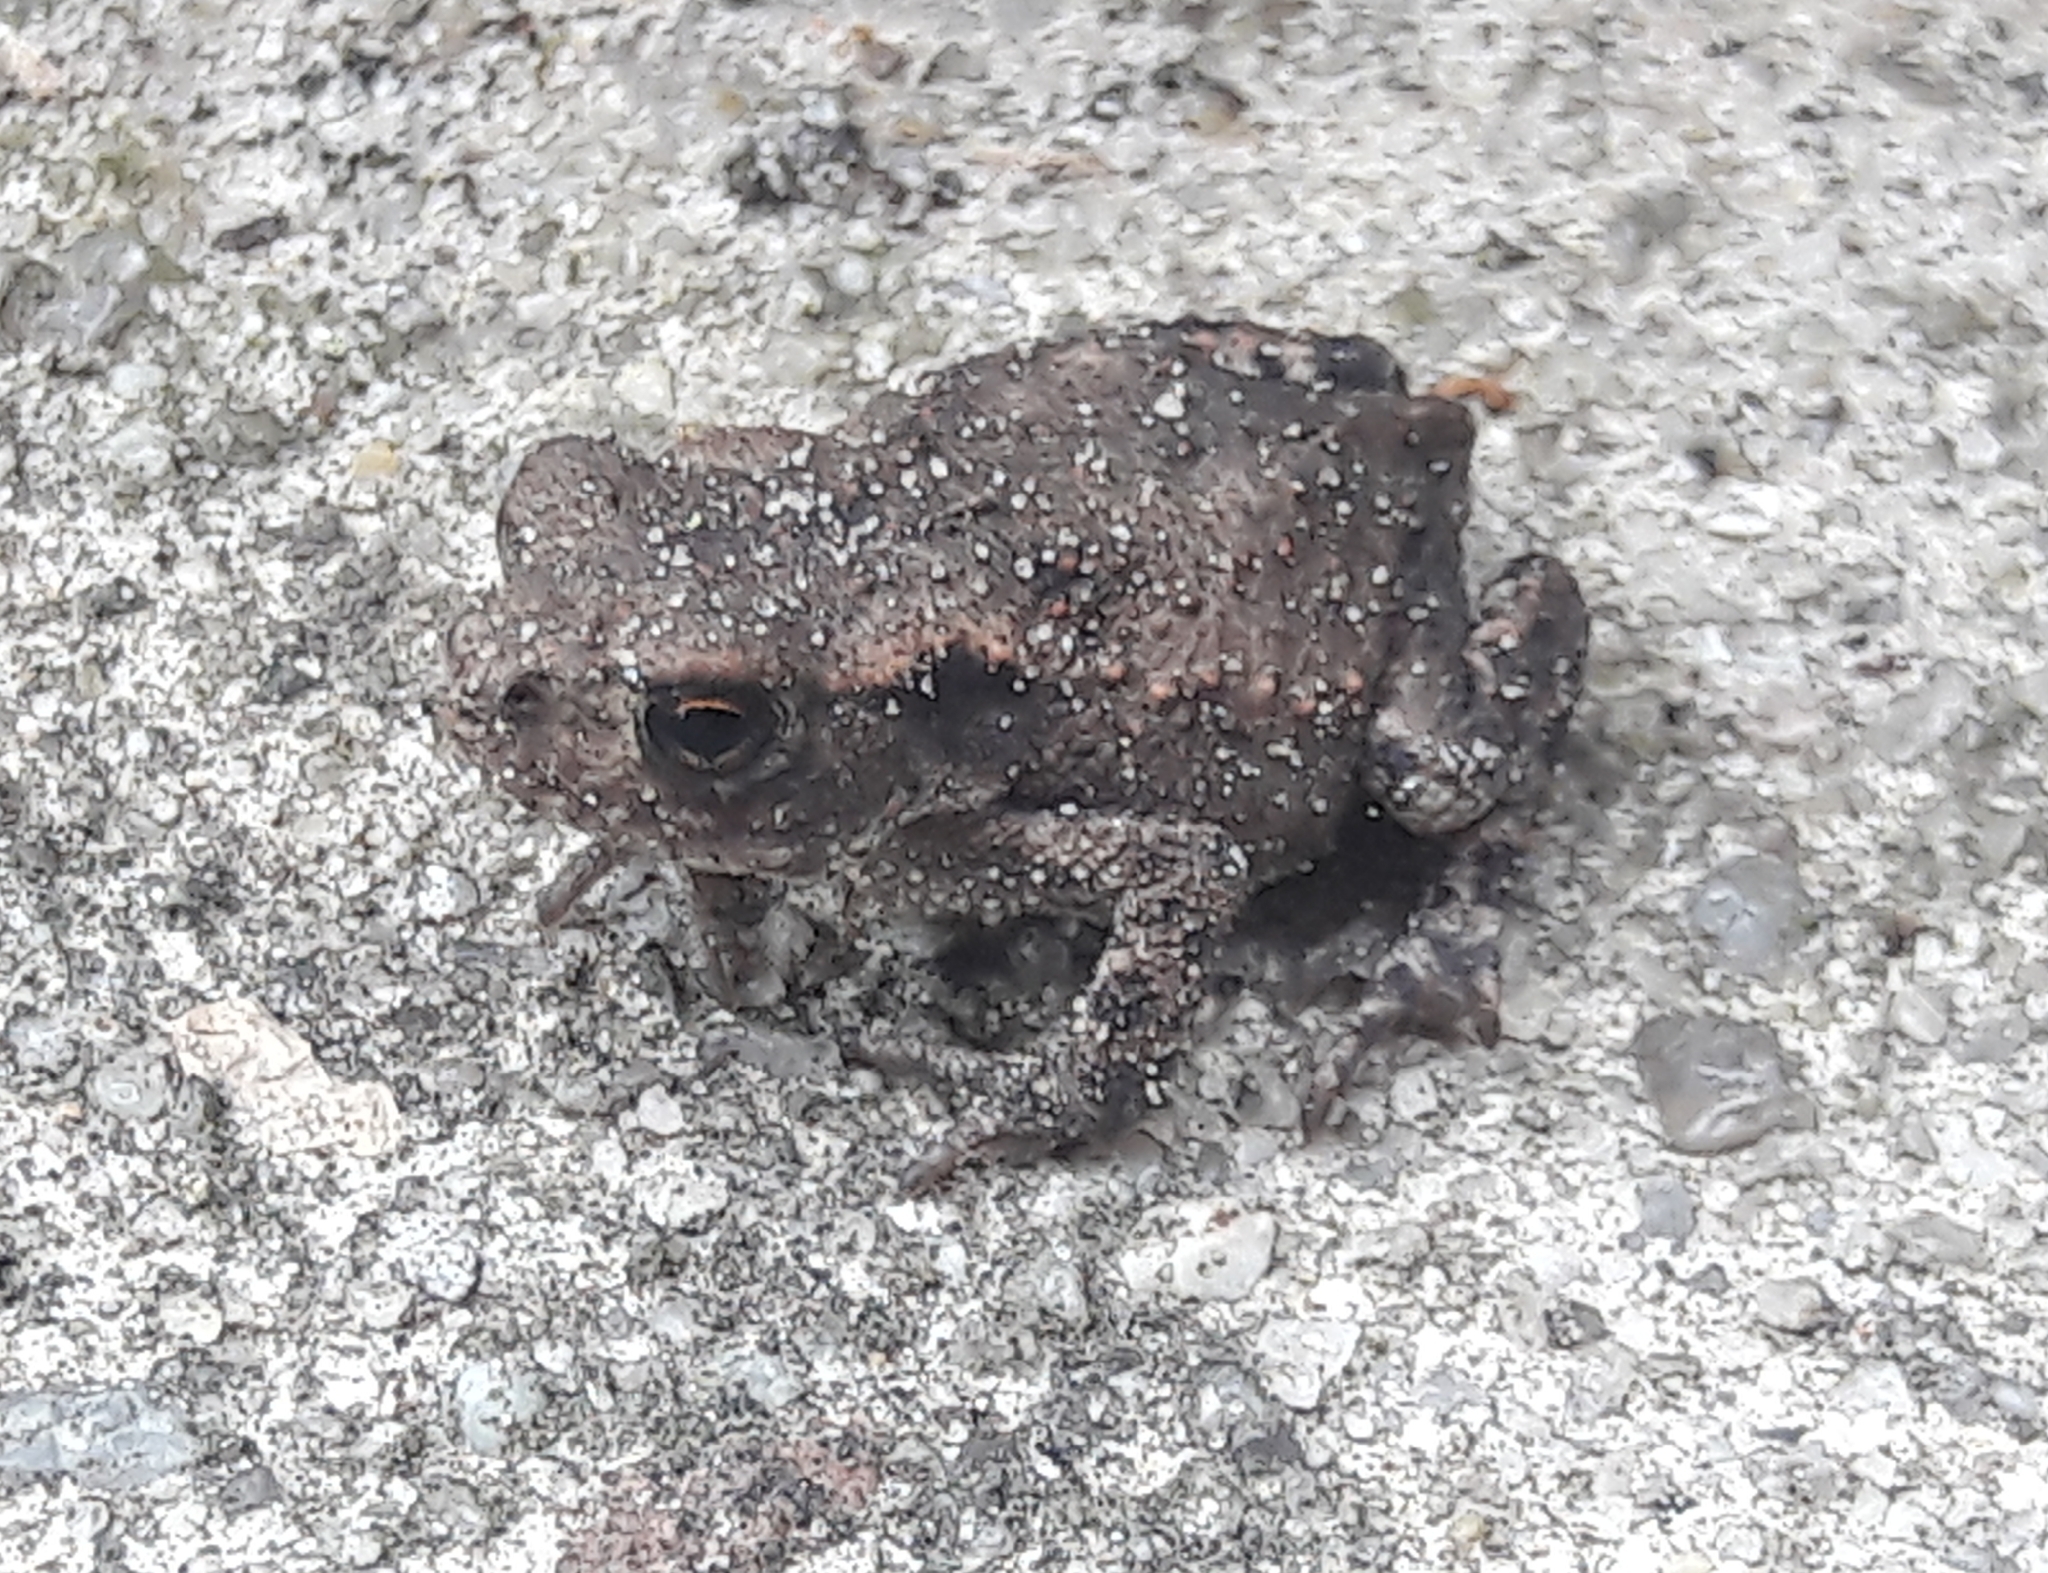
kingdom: Animalia
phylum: Chordata
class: Amphibia
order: Anura
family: Bufonidae
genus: Bufo
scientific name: Bufo bufo
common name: Common toad
